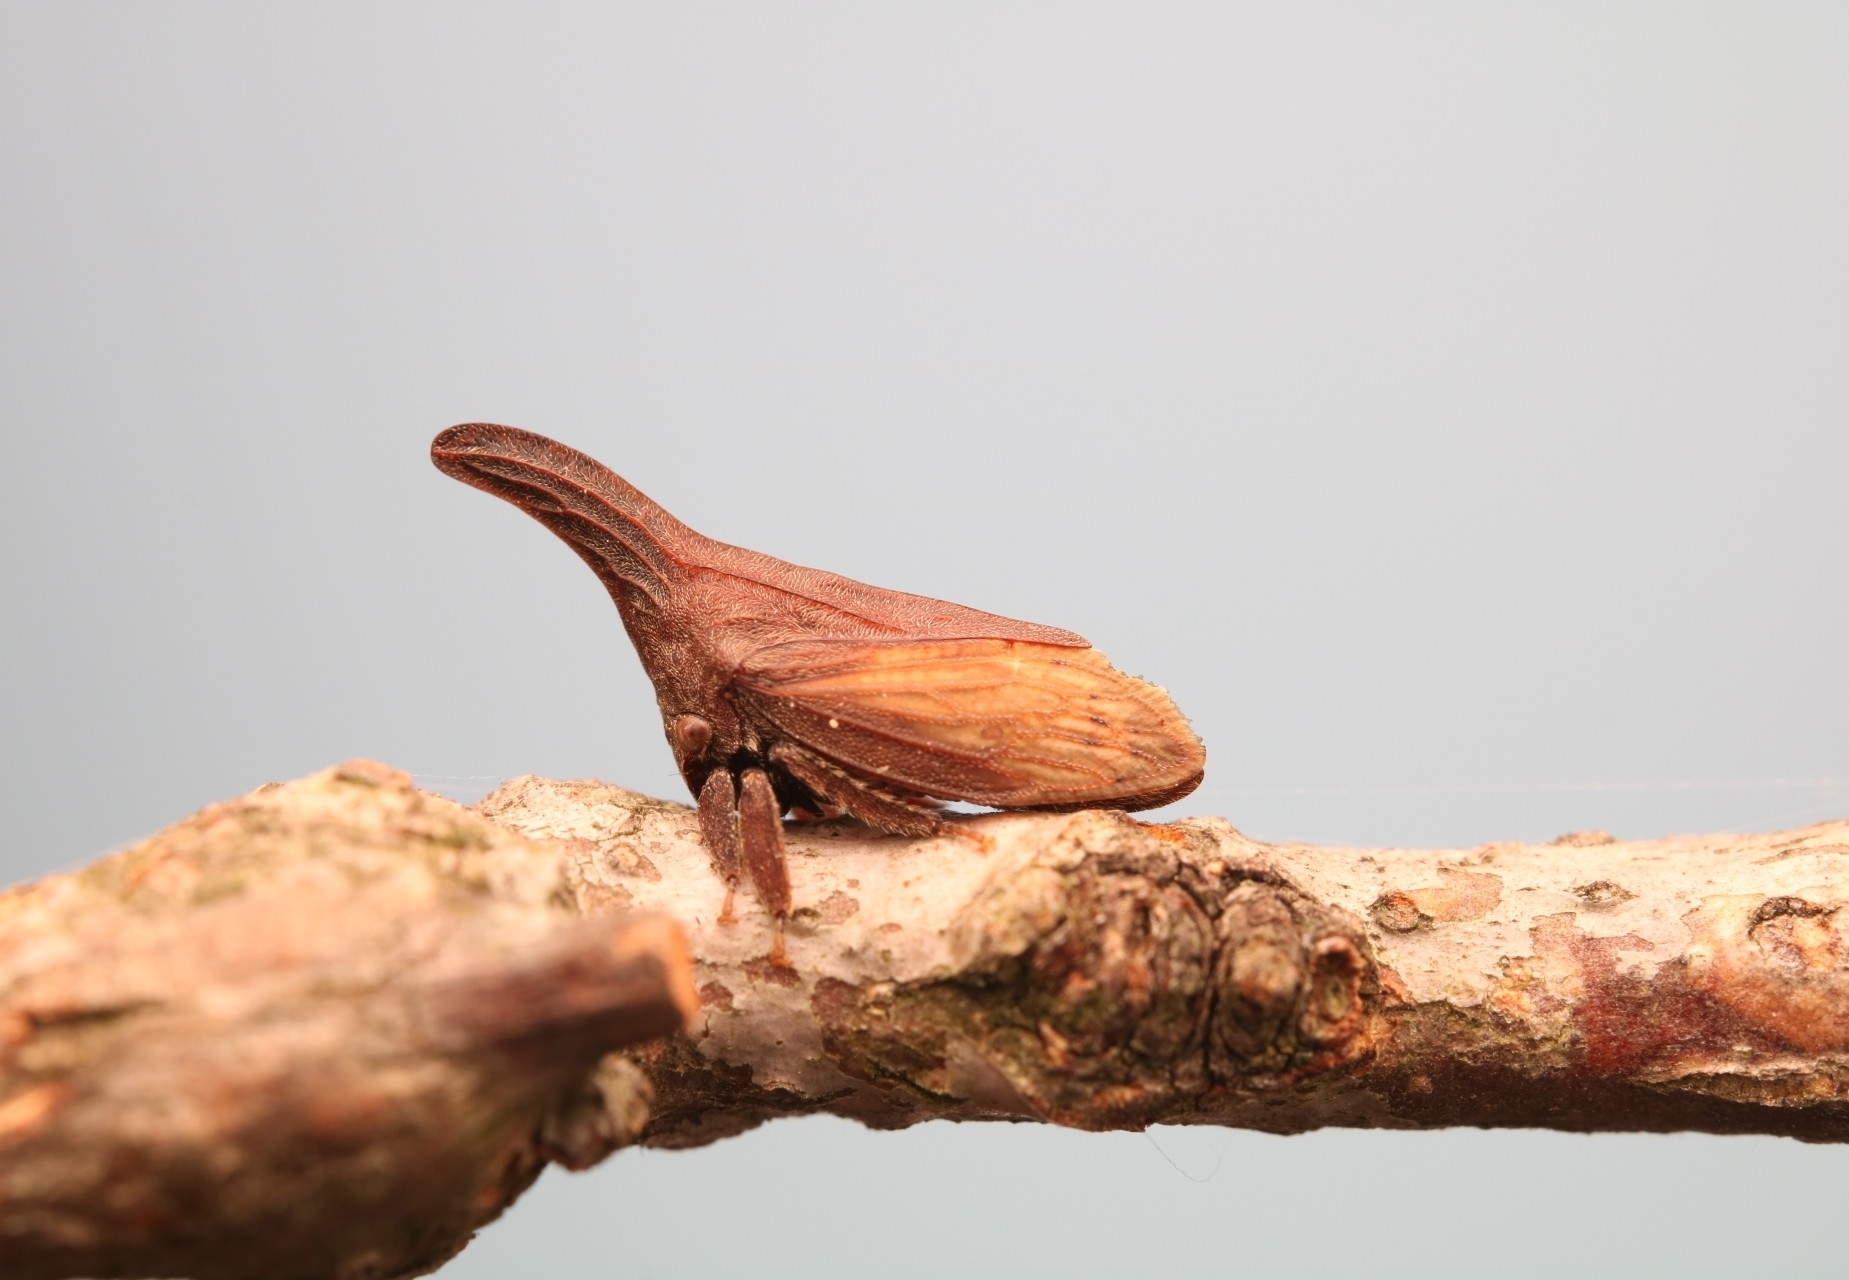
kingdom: Animalia
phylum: Arthropoda
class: Insecta
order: Hemiptera
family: Membracidae
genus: Enchenopa
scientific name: Enchenopa latipes
